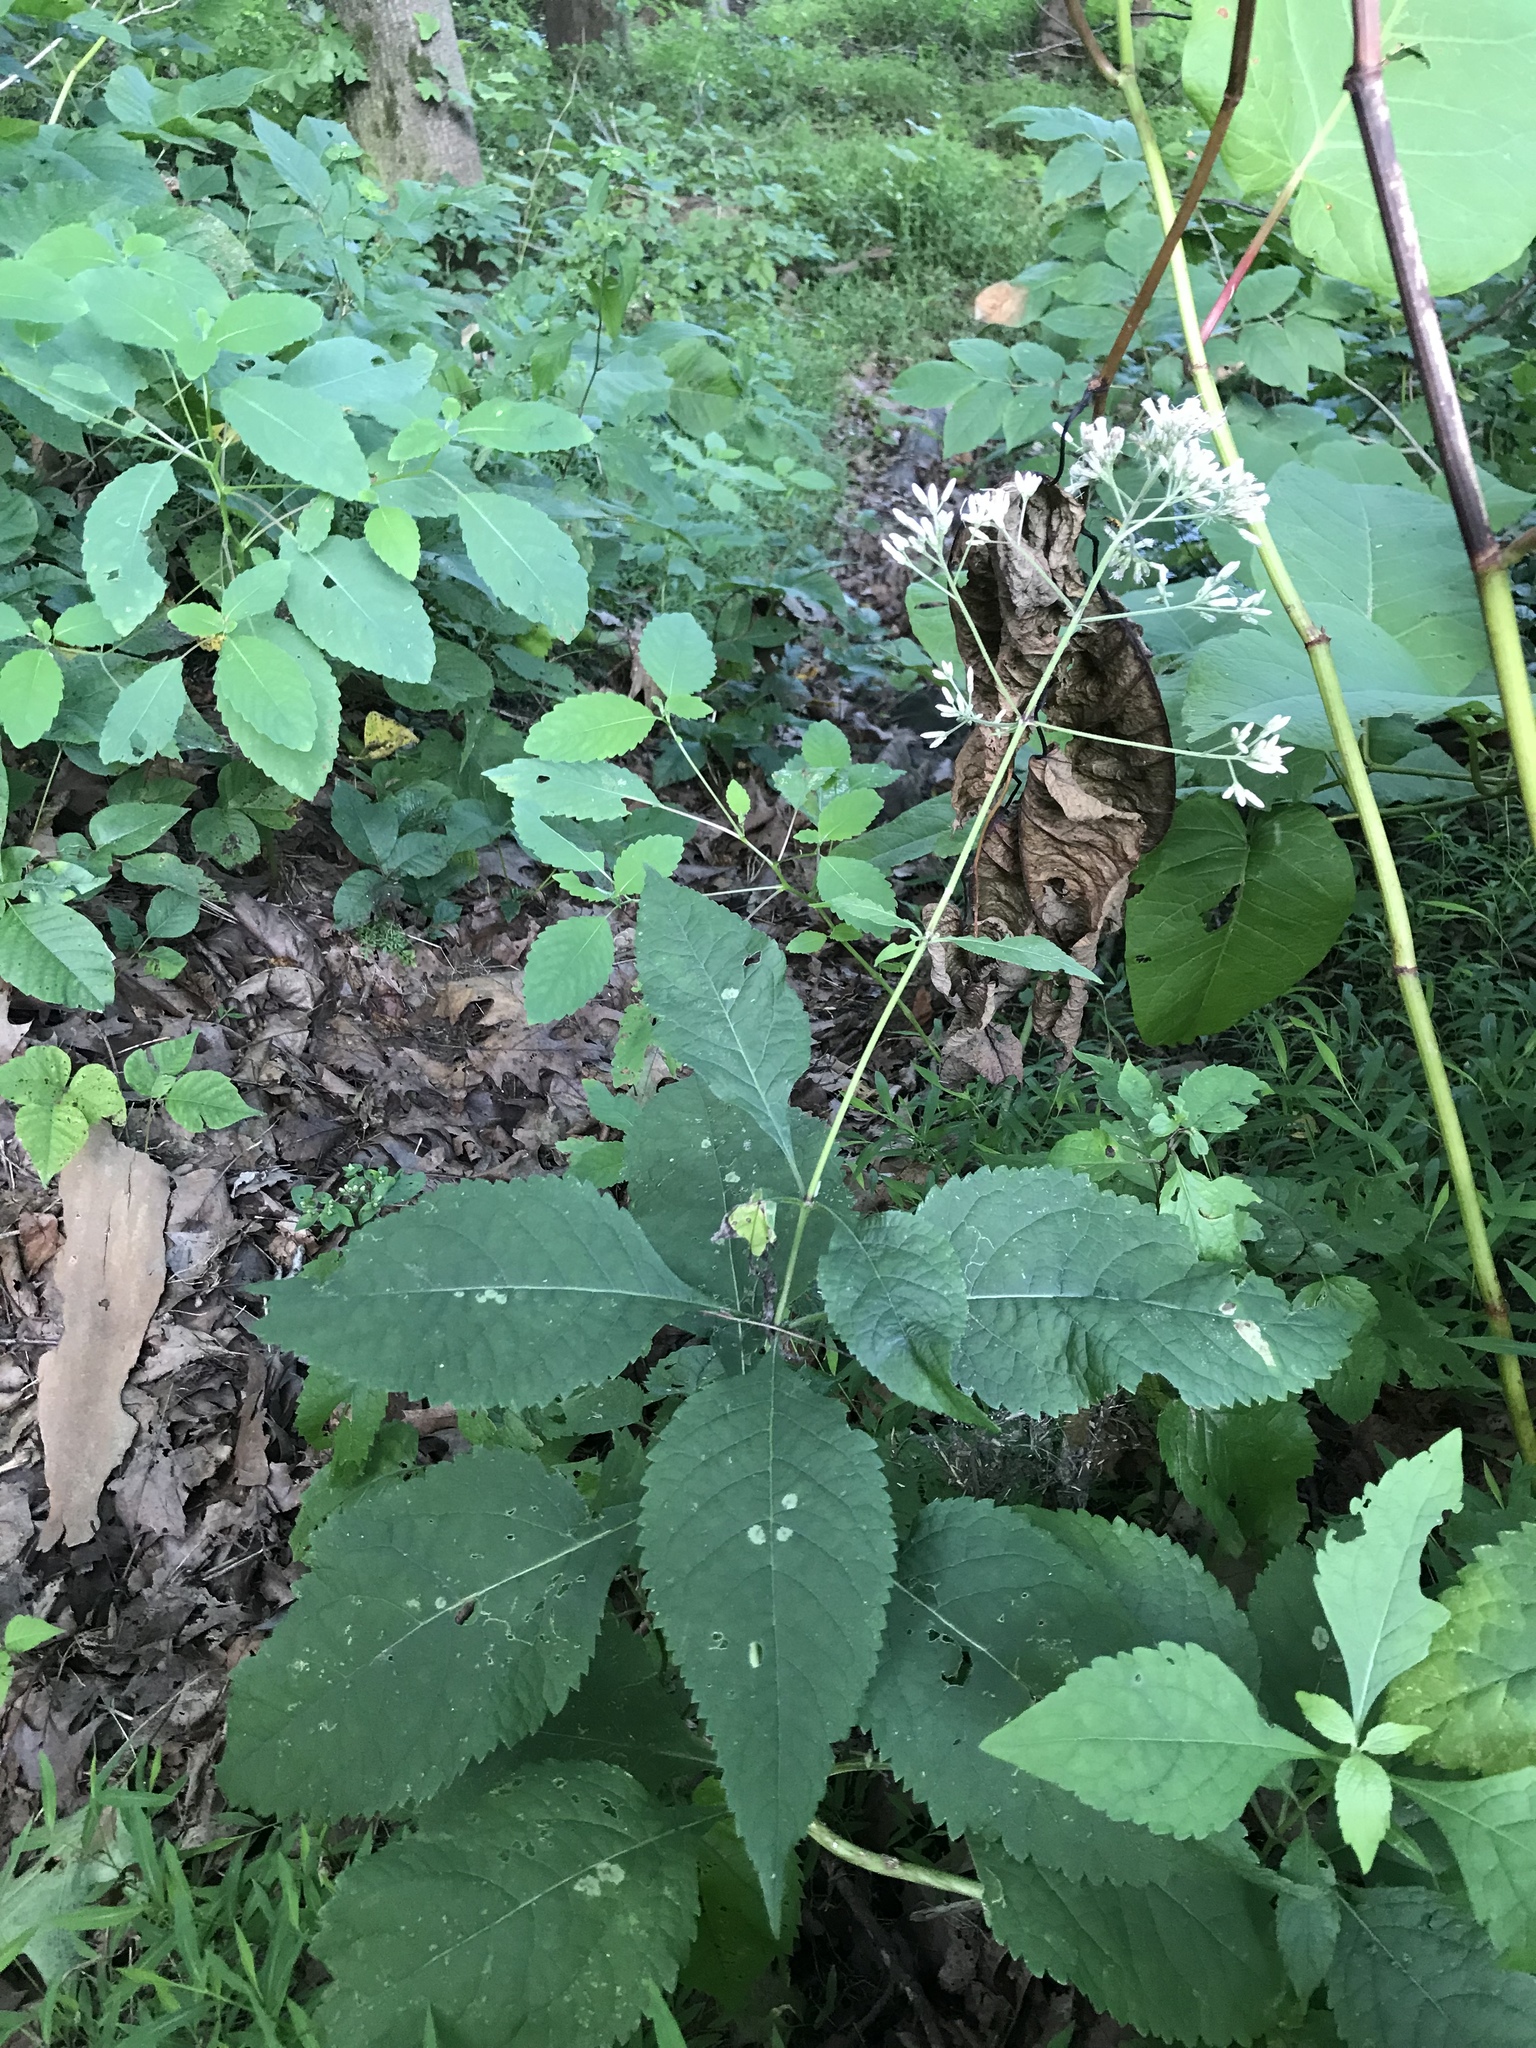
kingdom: Plantae
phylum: Tracheophyta
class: Magnoliopsida
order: Asterales
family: Asteraceae
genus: Eutrochium
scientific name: Eutrochium purpureum
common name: Gravelroot
